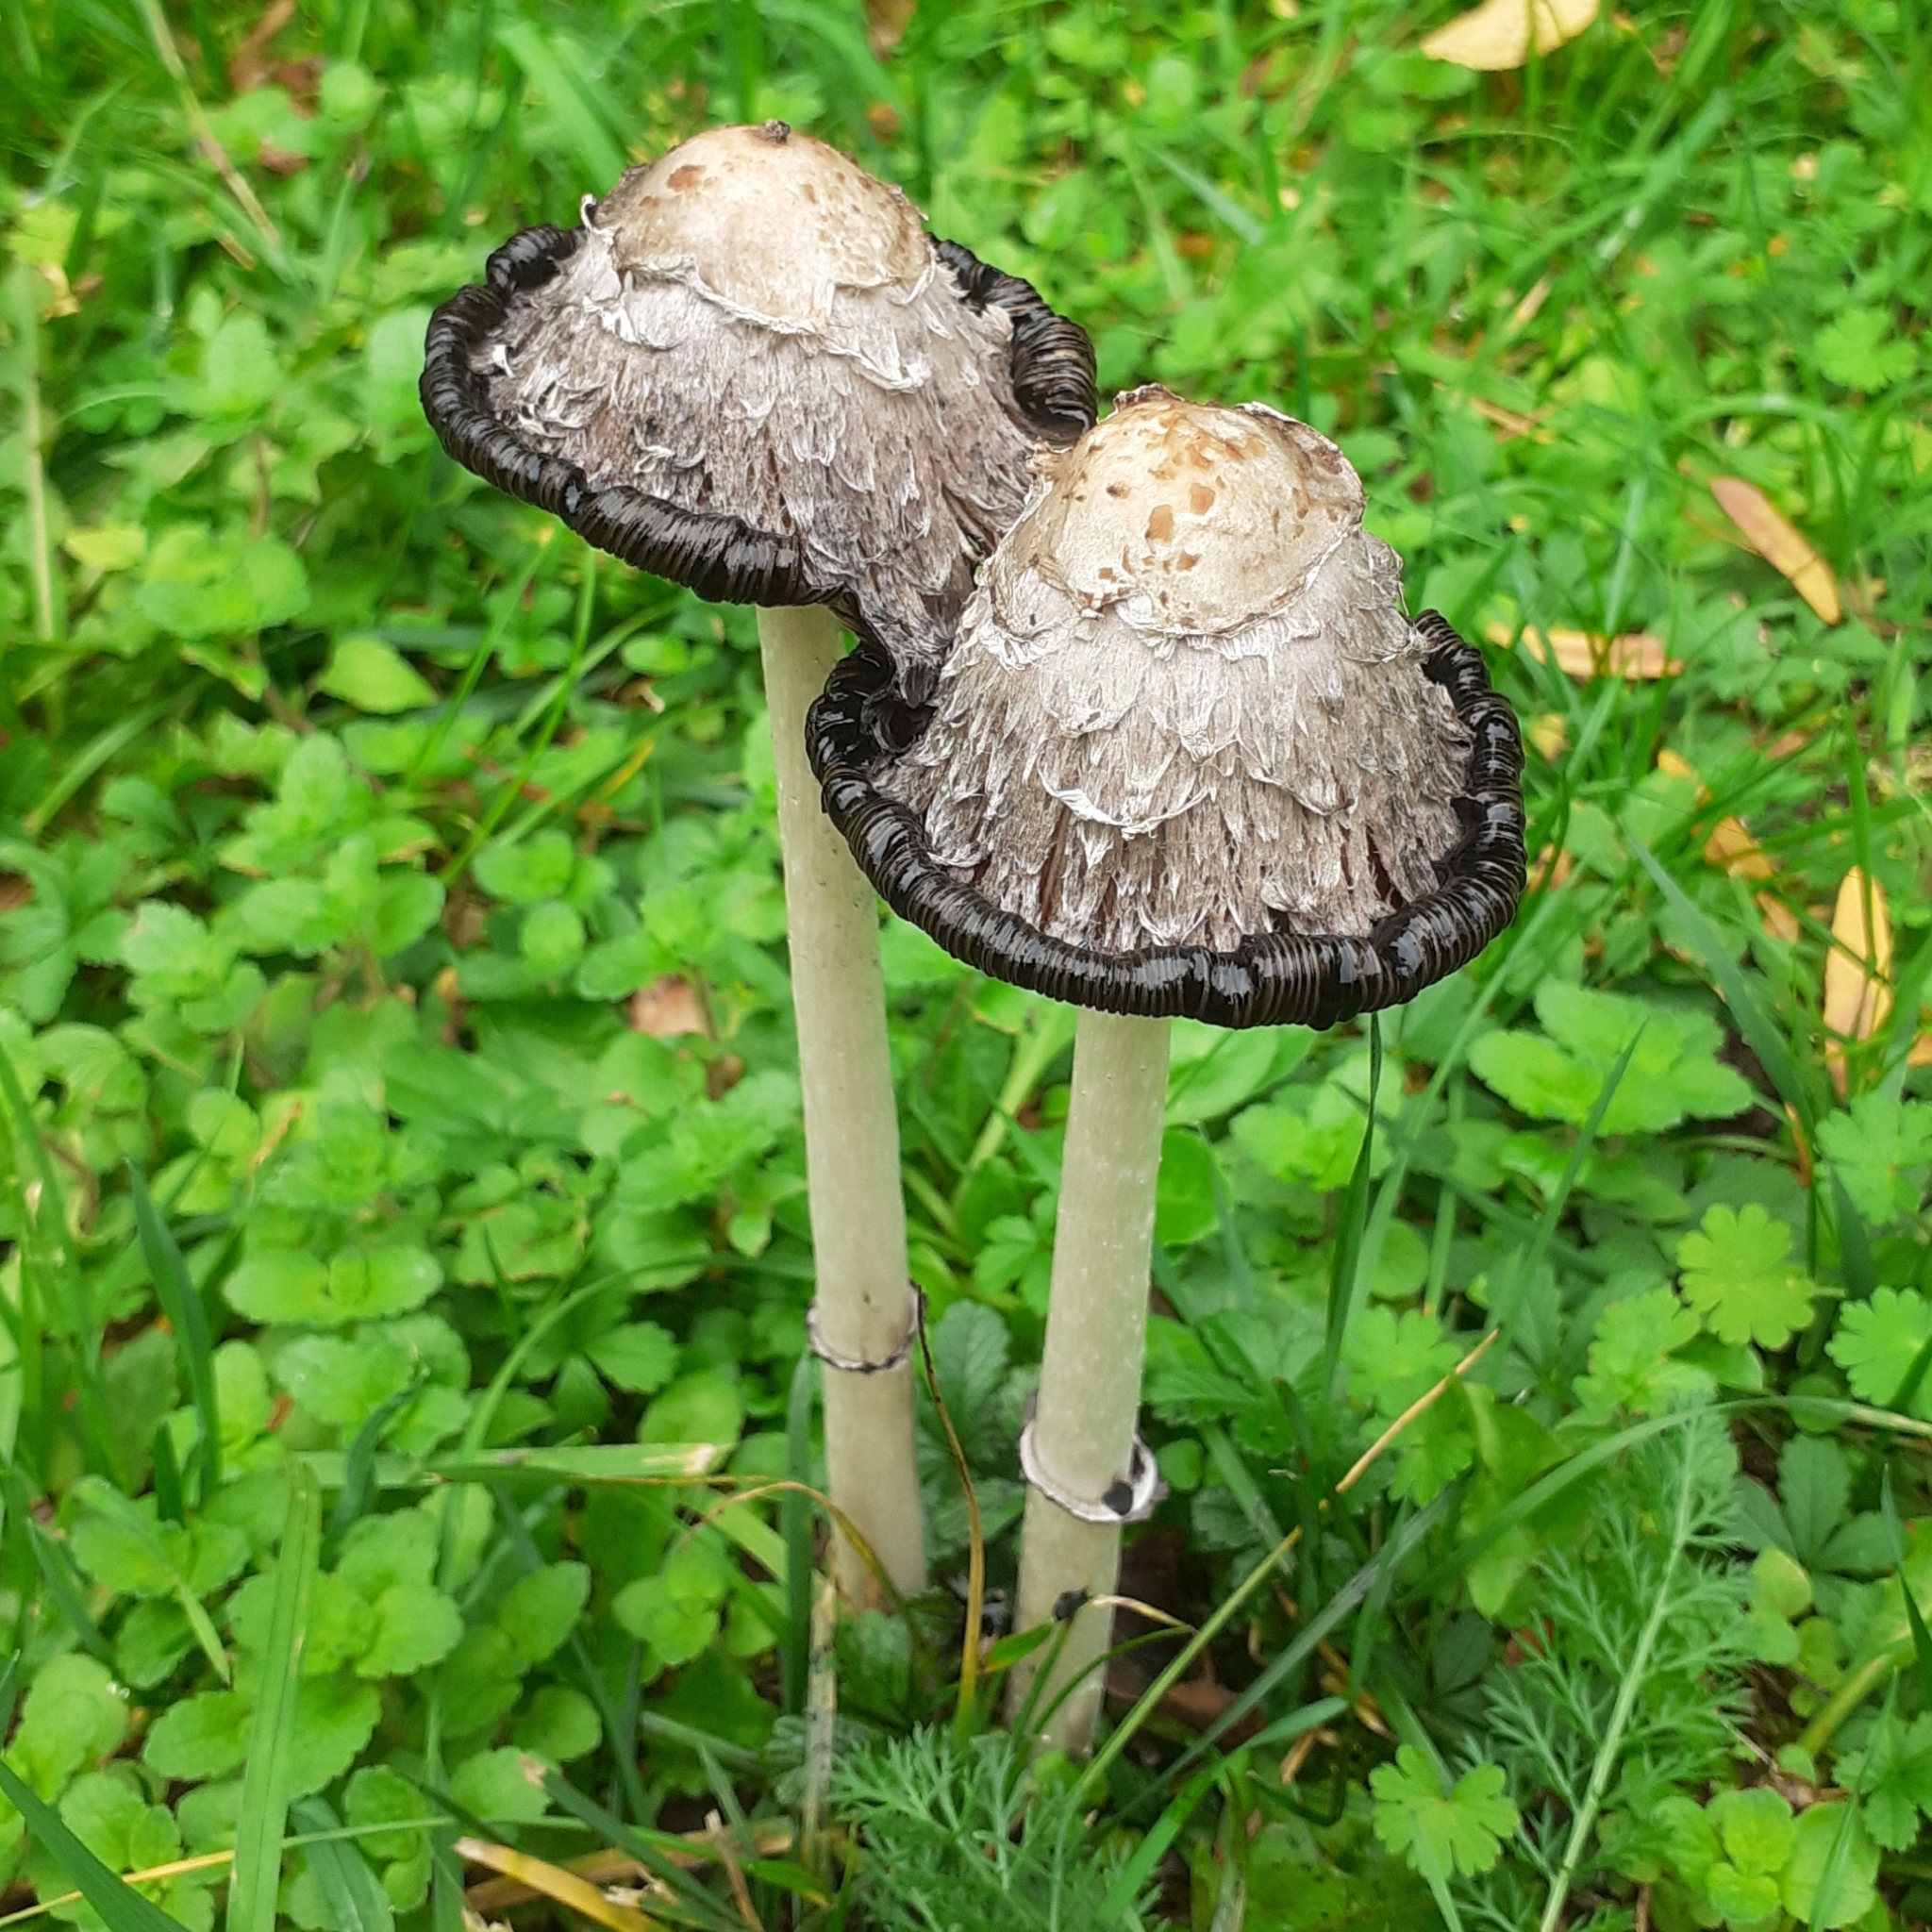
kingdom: Fungi
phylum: Basidiomycota
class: Agaricomycetes
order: Agaricales
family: Agaricaceae
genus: Coprinus
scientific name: Coprinus comatus
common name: Lawyer's wig
